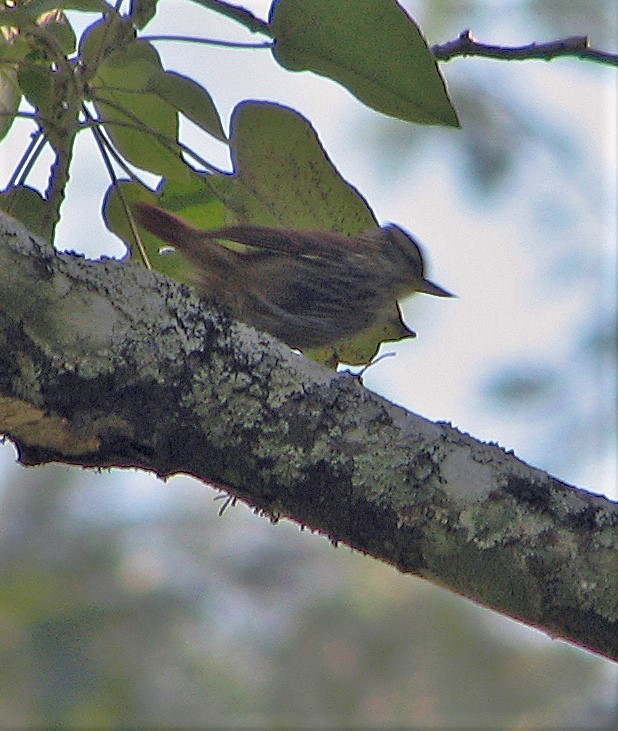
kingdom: Animalia
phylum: Chordata
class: Aves
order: Passeriformes
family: Furnariidae
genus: Xenops
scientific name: Xenops rutilans
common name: Streaked xenops
